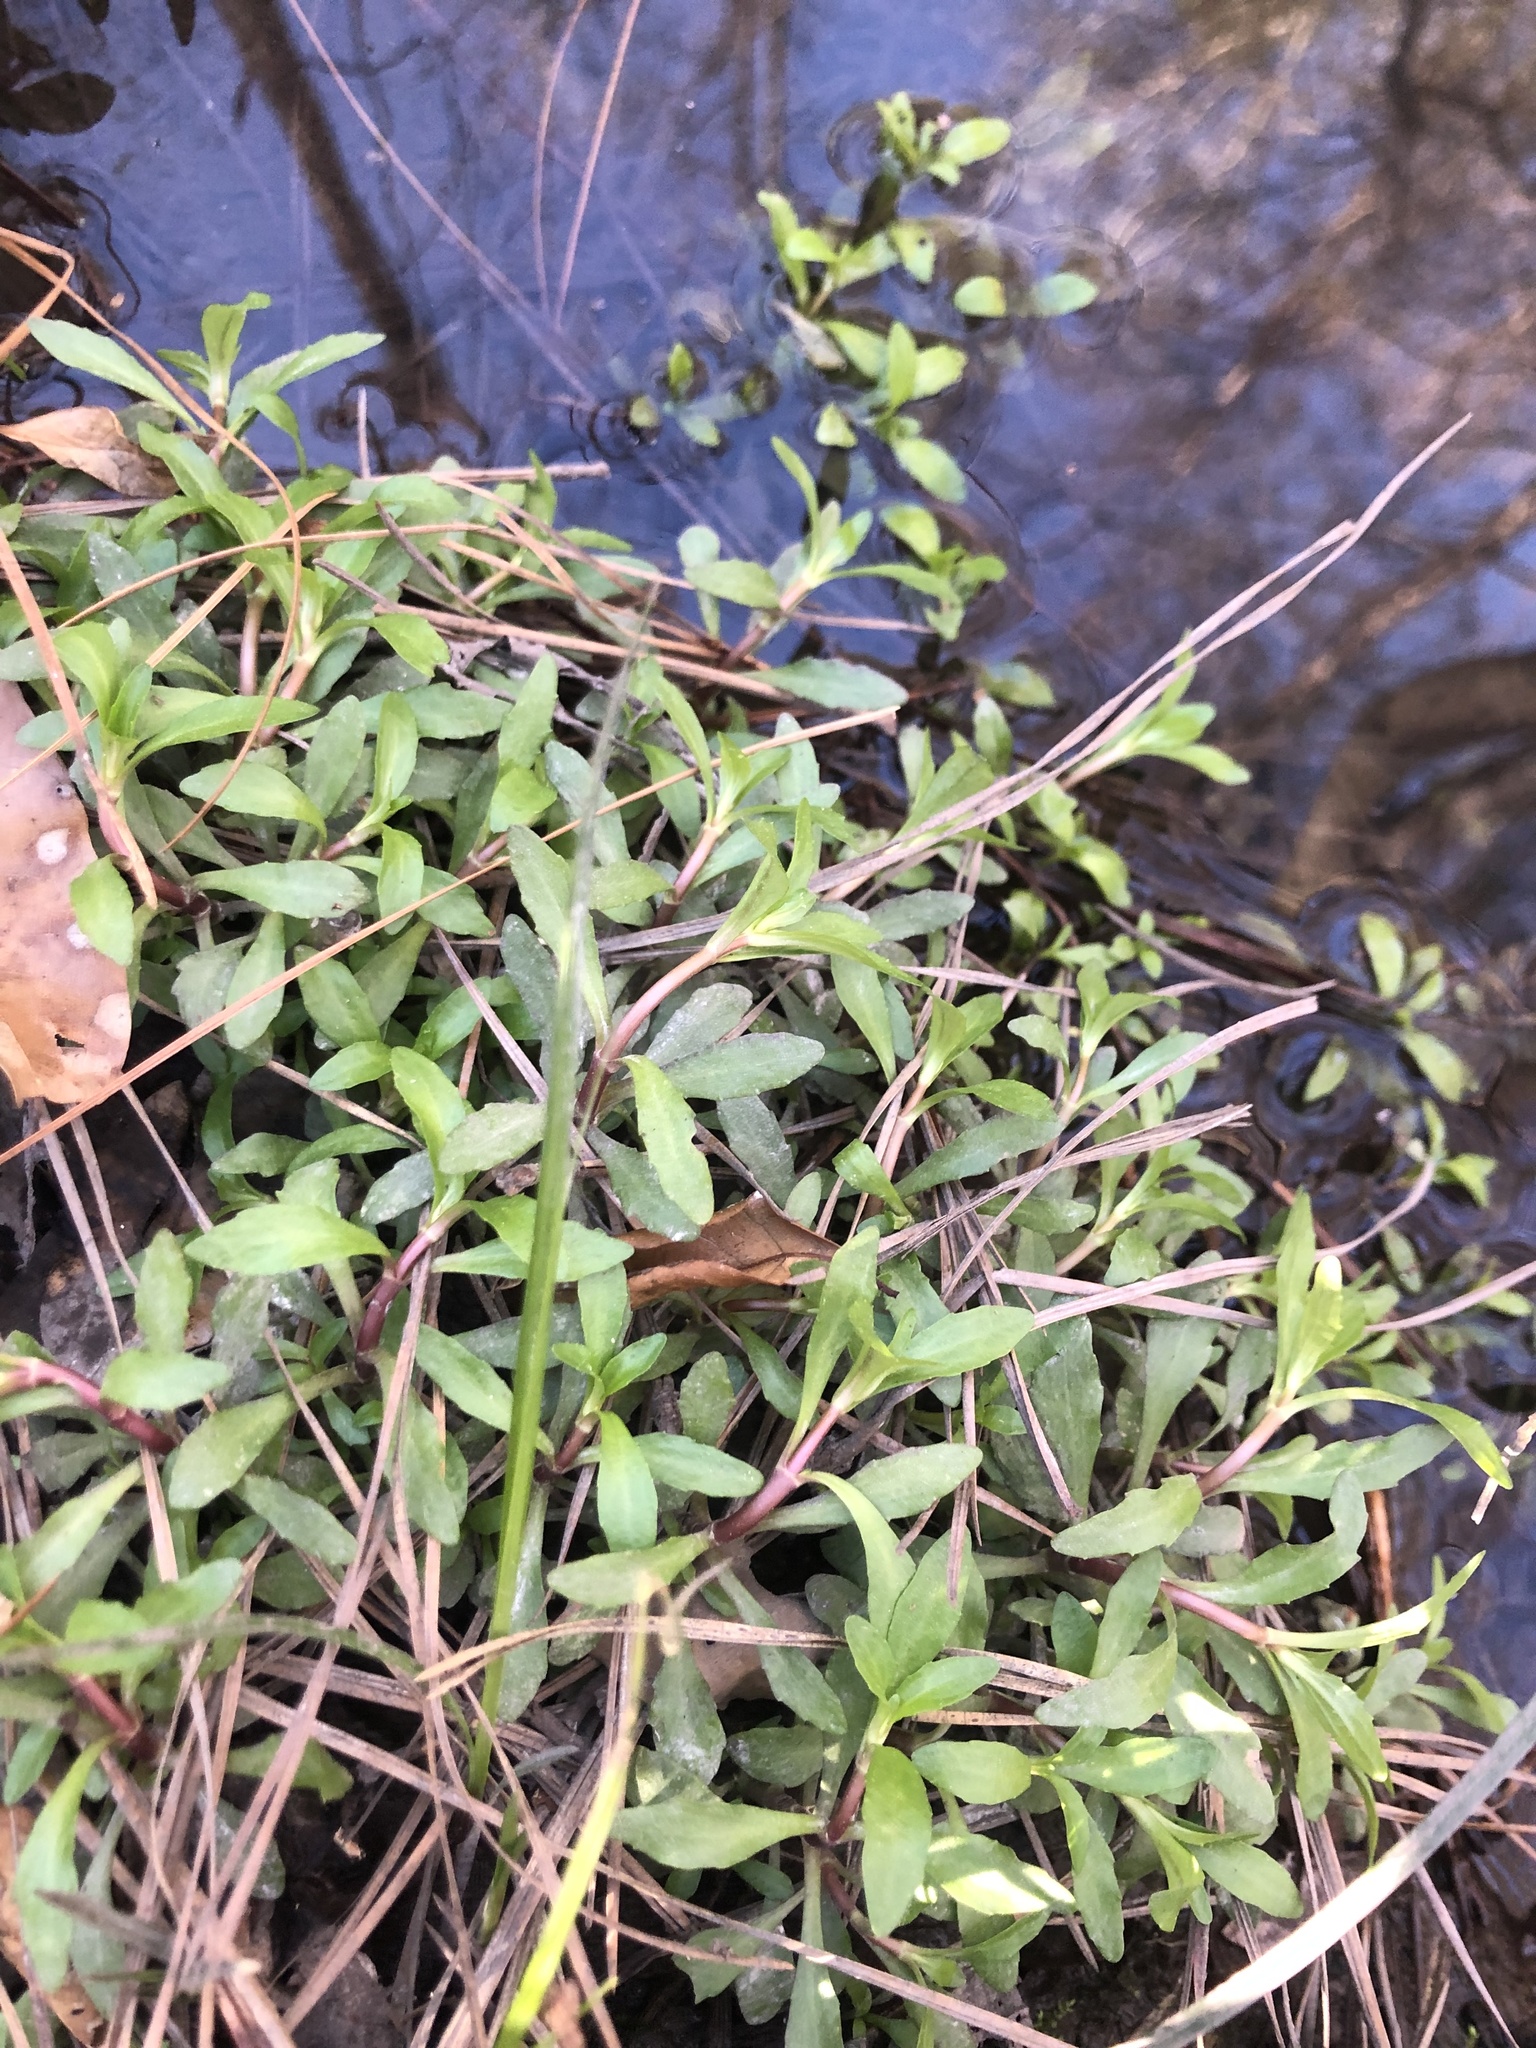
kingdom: Plantae
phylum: Tracheophyta
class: Magnoliopsida
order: Lamiales
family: Linderniaceae
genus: Lindernia
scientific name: Lindernia dubia
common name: Annual false pimpernel
